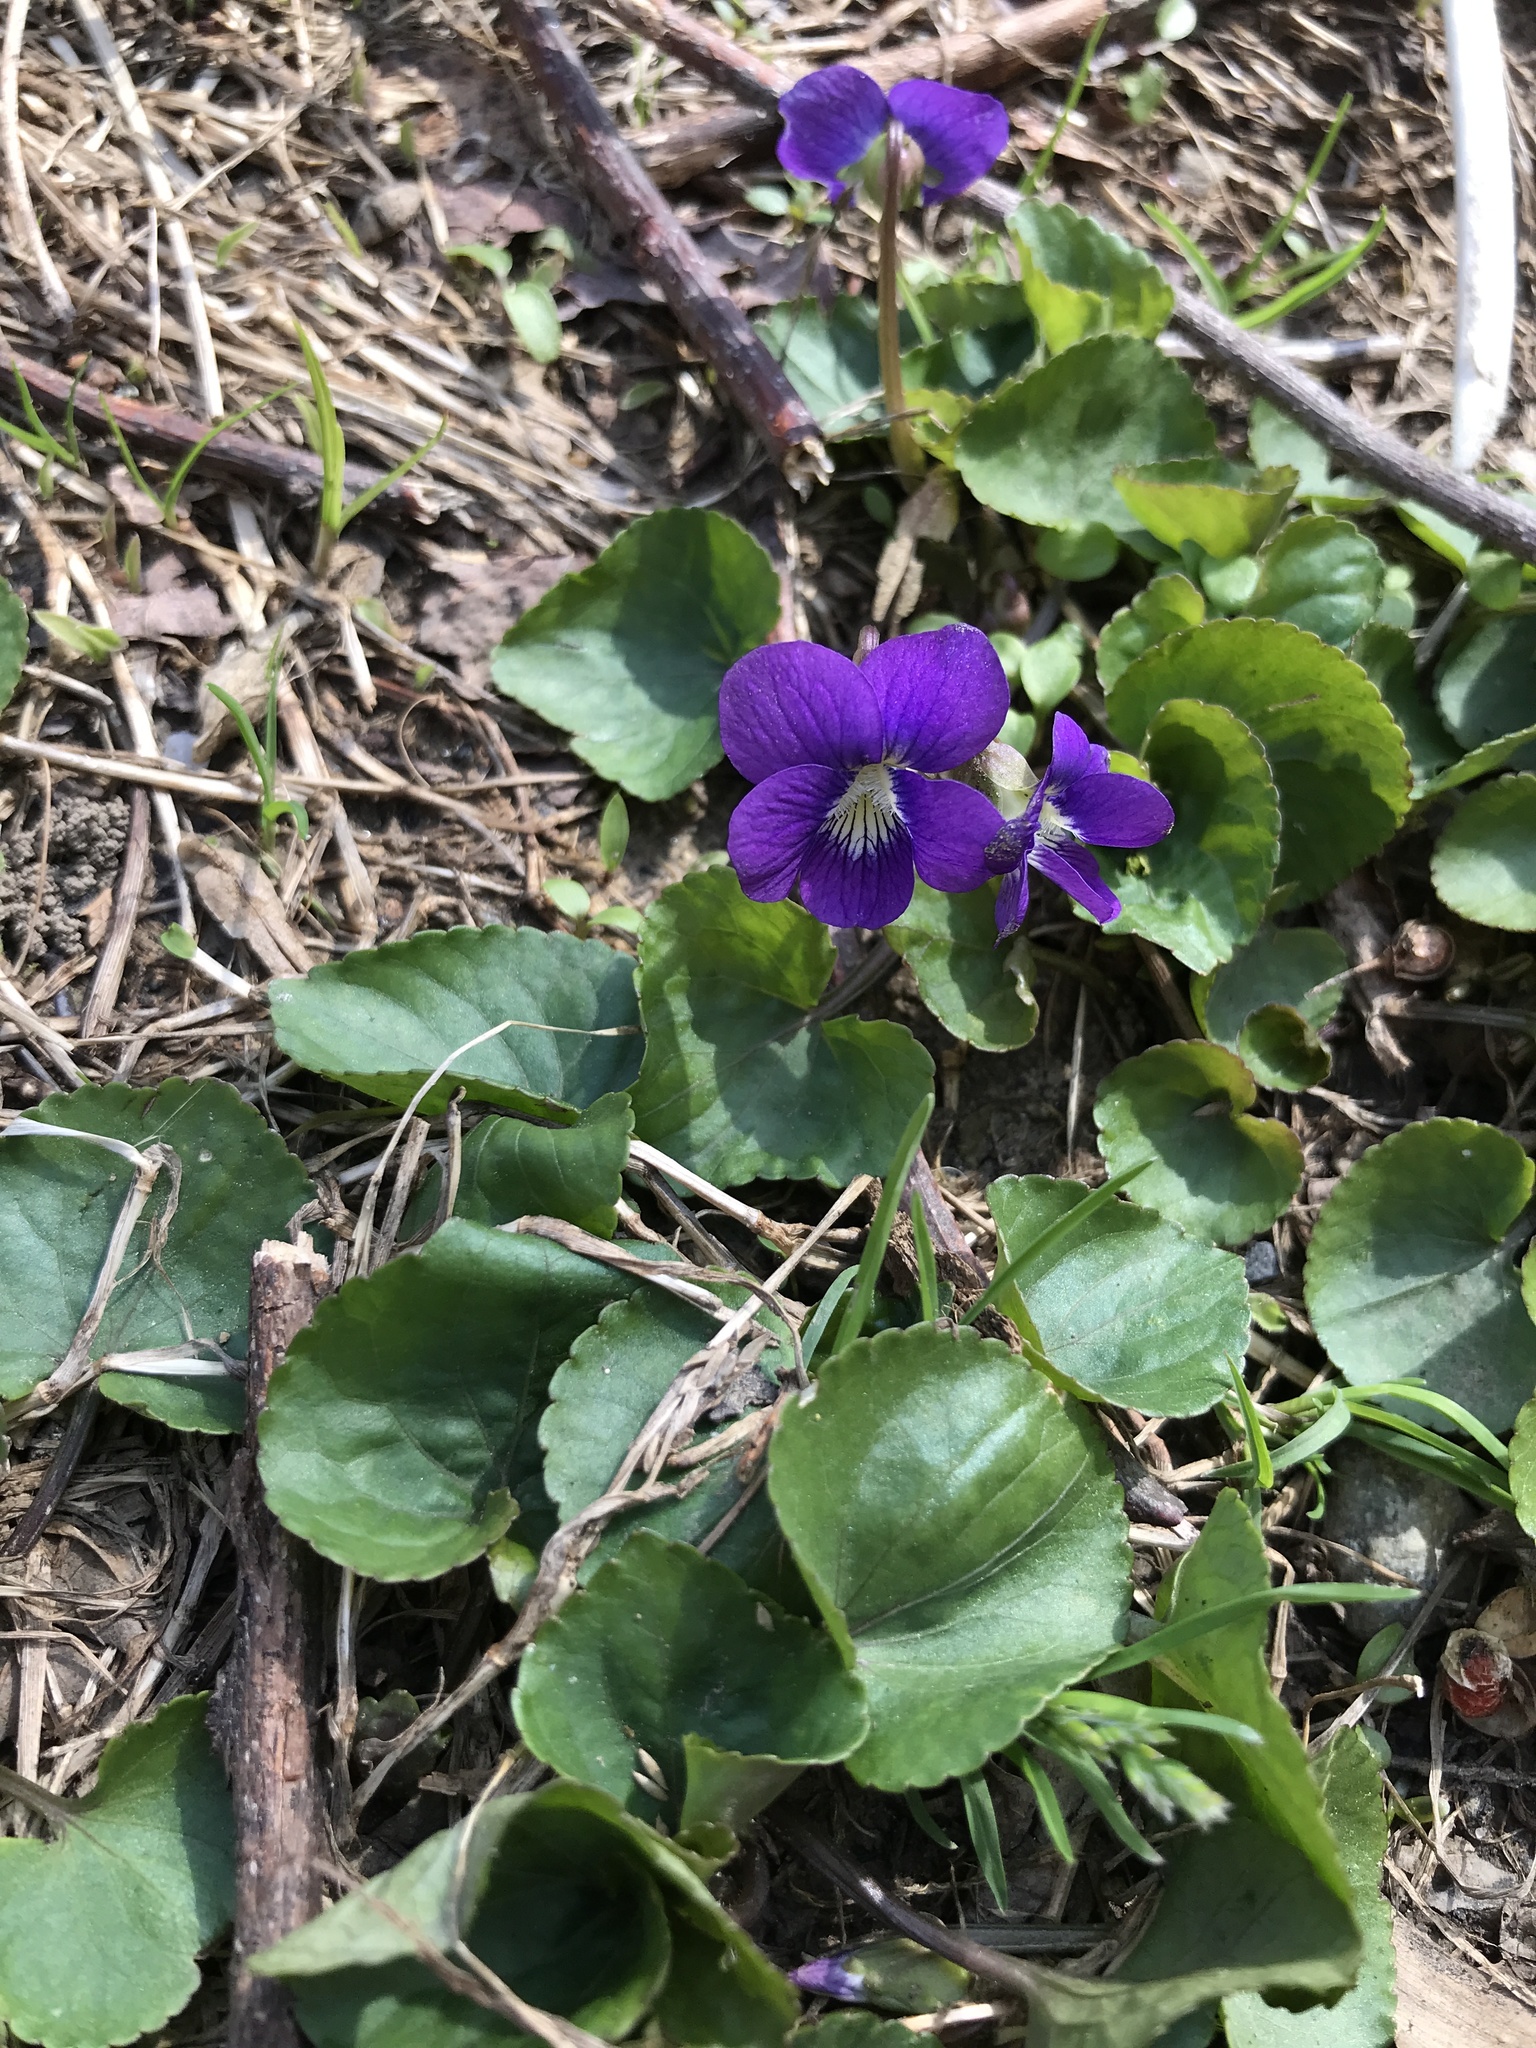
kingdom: Plantae
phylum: Tracheophyta
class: Magnoliopsida
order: Malpighiales
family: Violaceae
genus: Viola
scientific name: Viola sororia
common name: Dooryard violet
